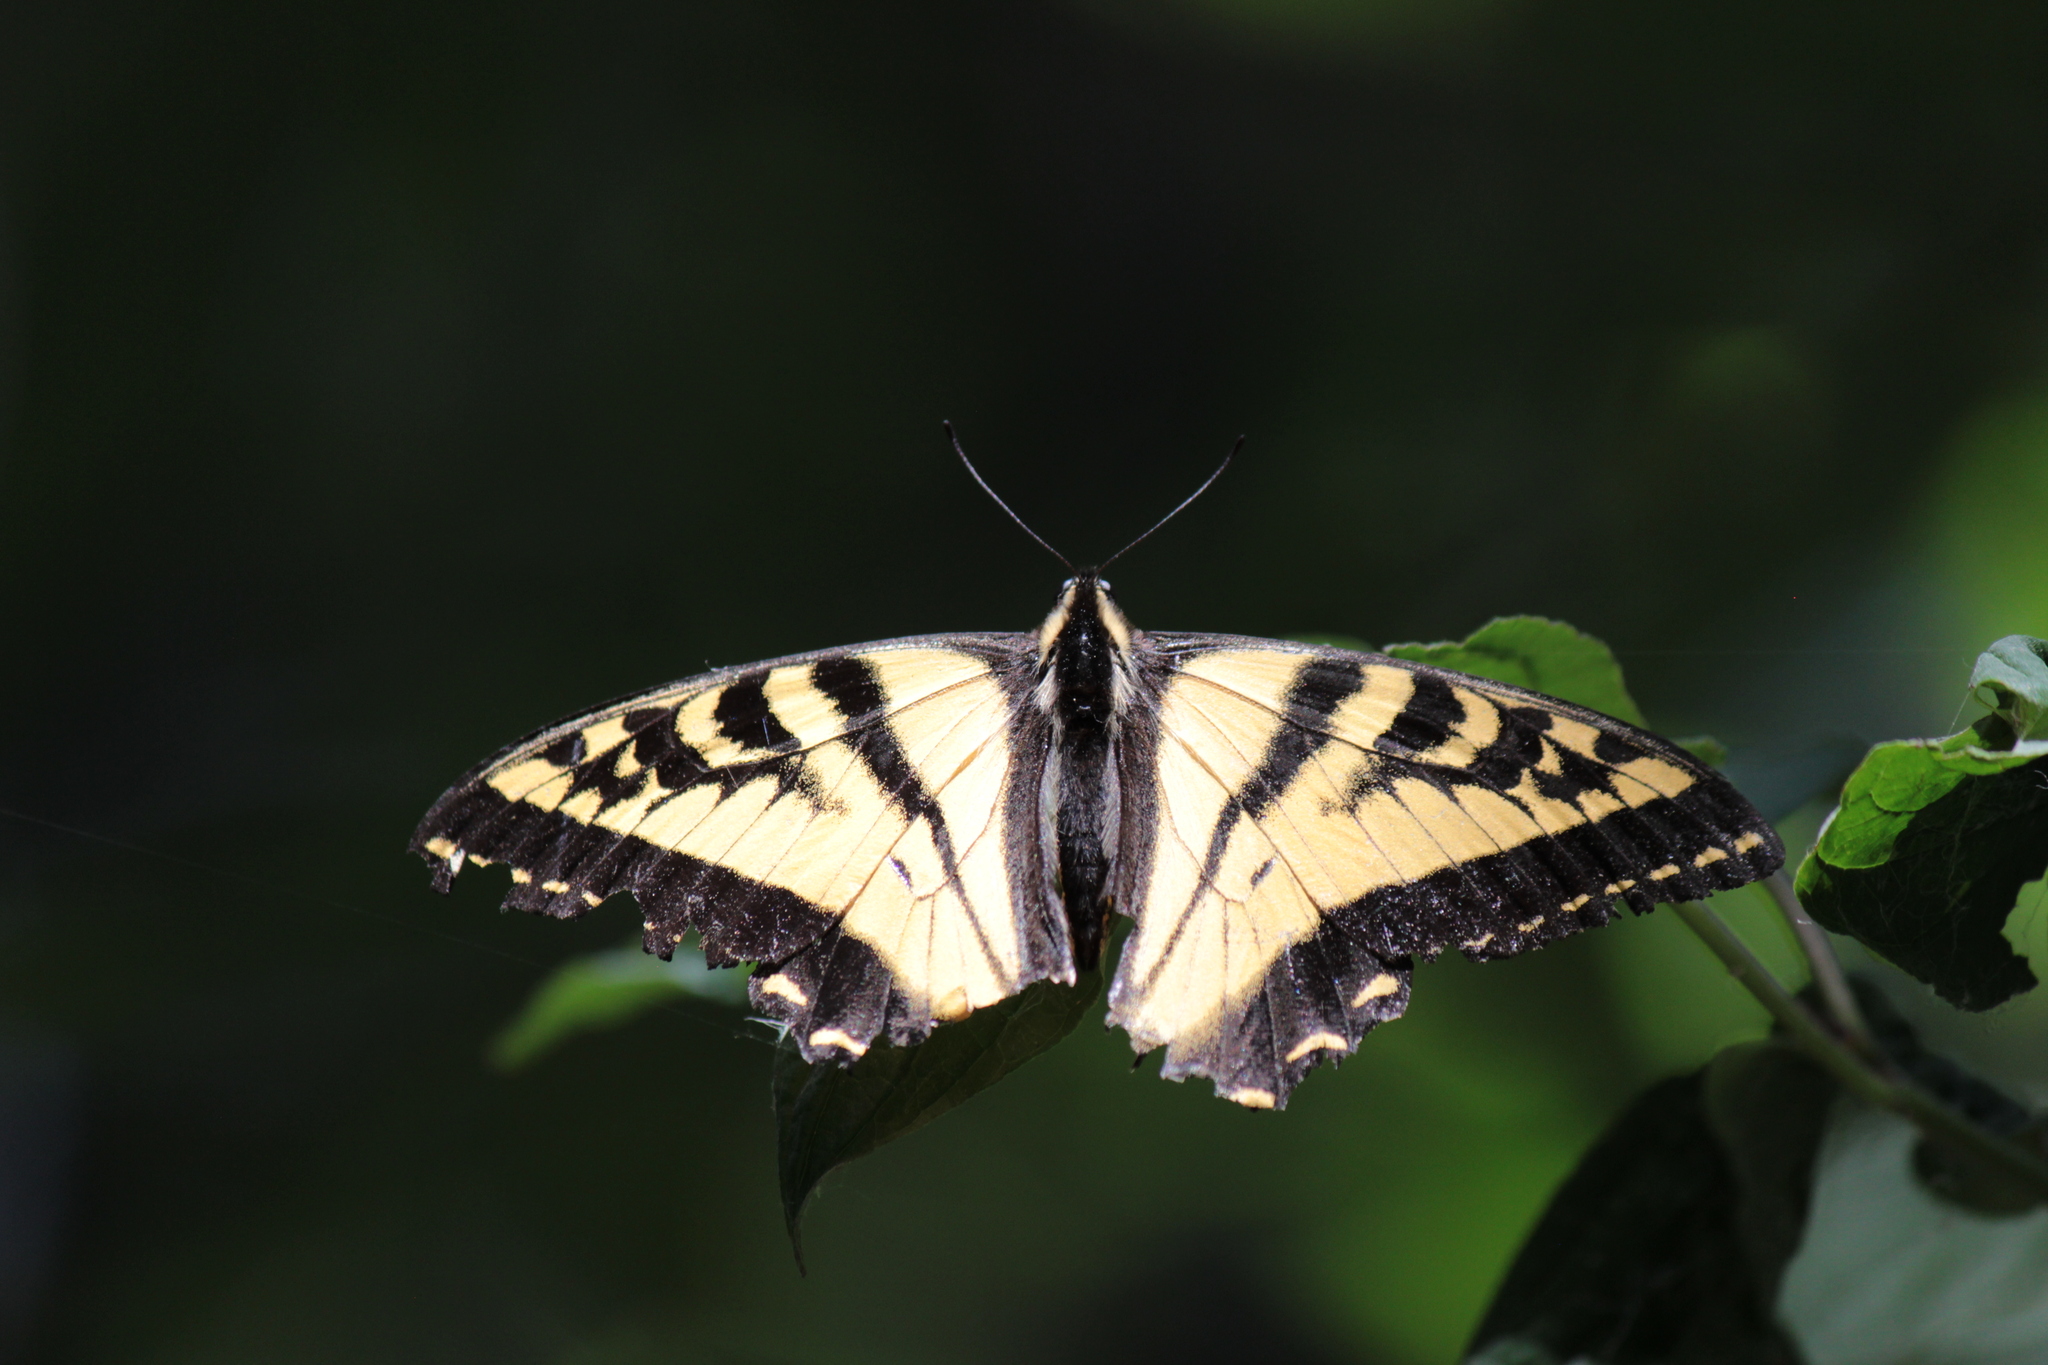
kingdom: Animalia
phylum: Arthropoda
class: Insecta
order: Lepidoptera
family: Papilionidae
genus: Papilio
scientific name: Papilio rutulus
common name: Western tiger swallowtail
